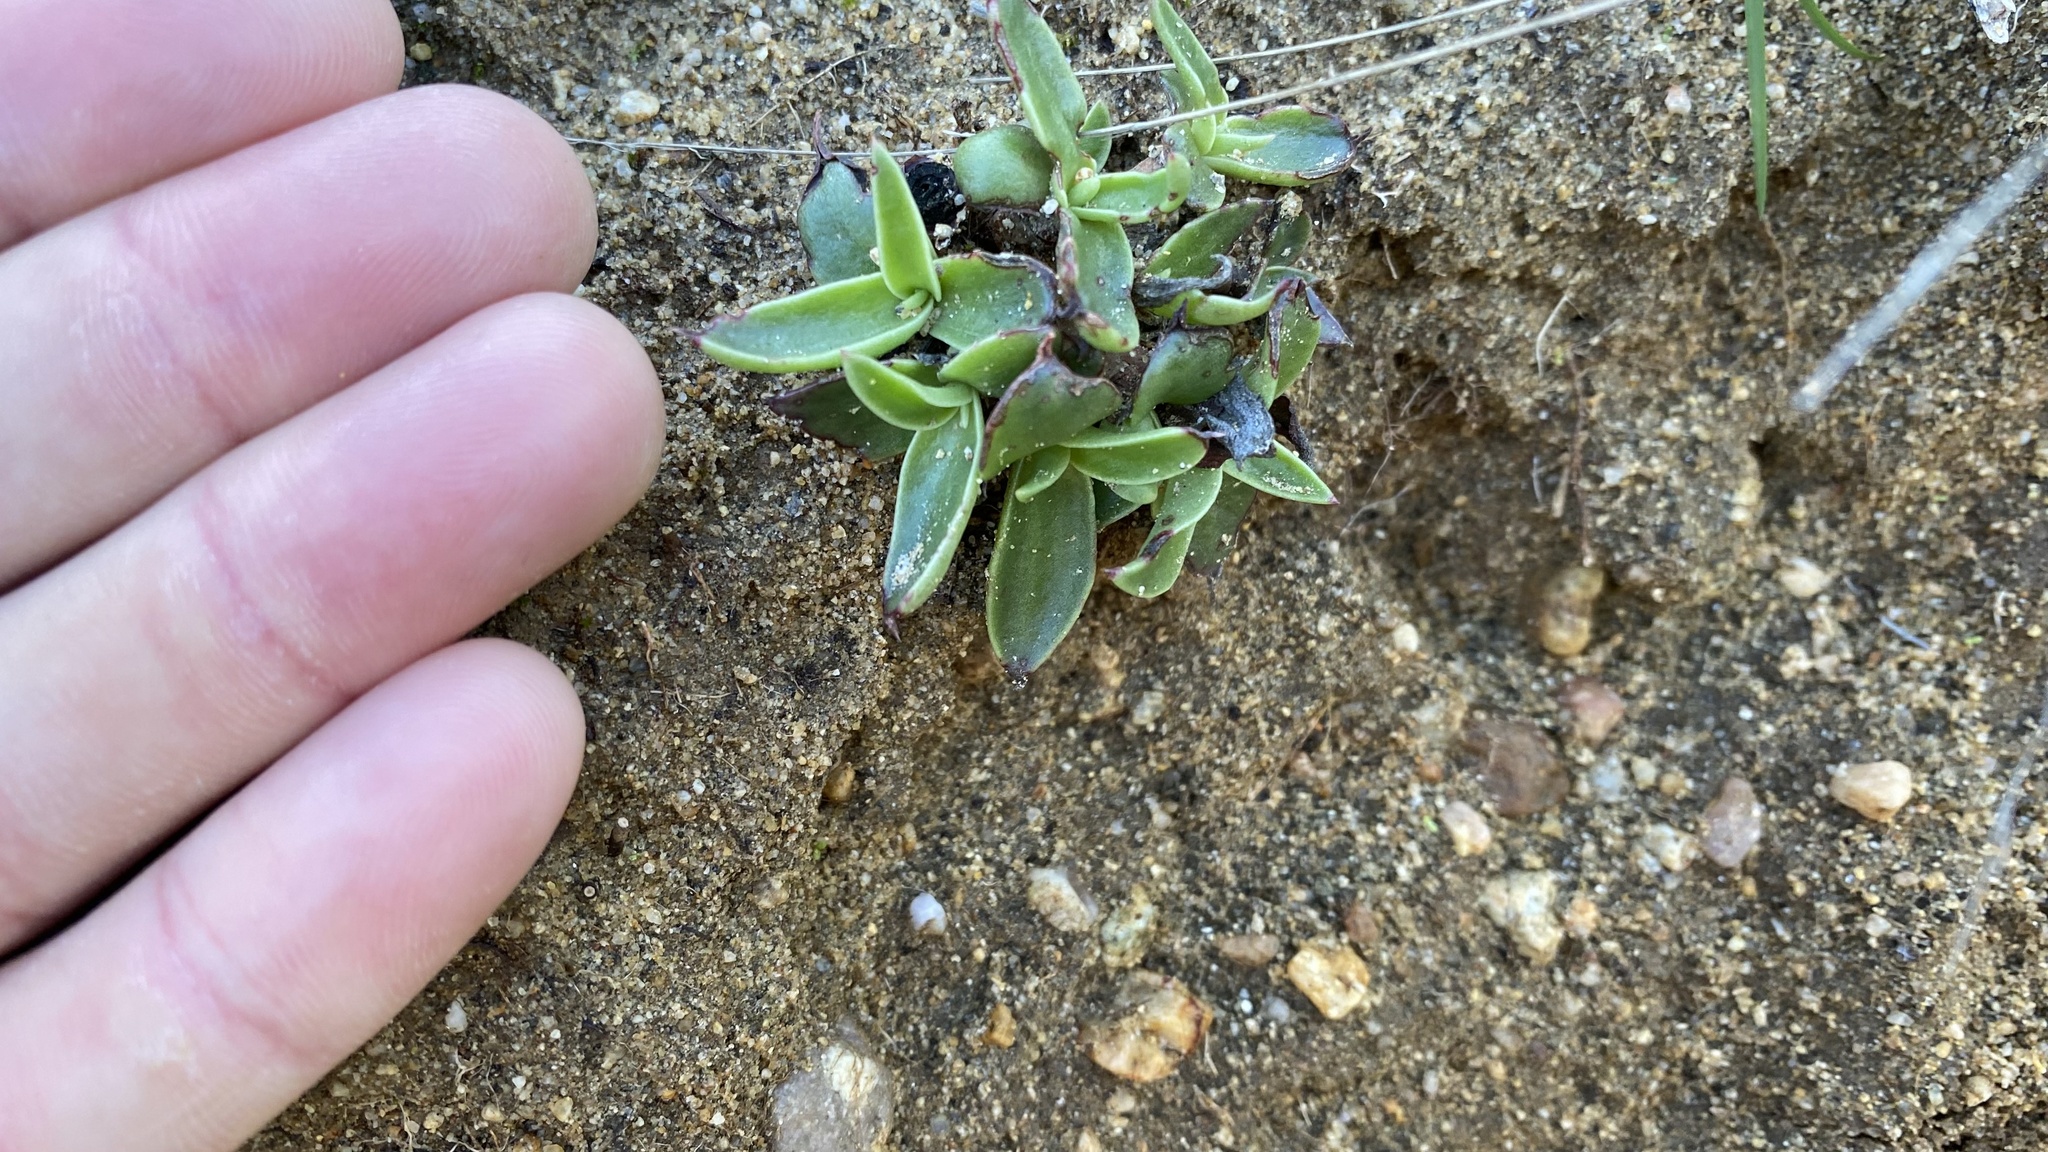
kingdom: Plantae
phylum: Tracheophyta
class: Magnoliopsida
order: Saxifragales
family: Crassulaceae
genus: Dudleya
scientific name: Dudleya lanceolata
